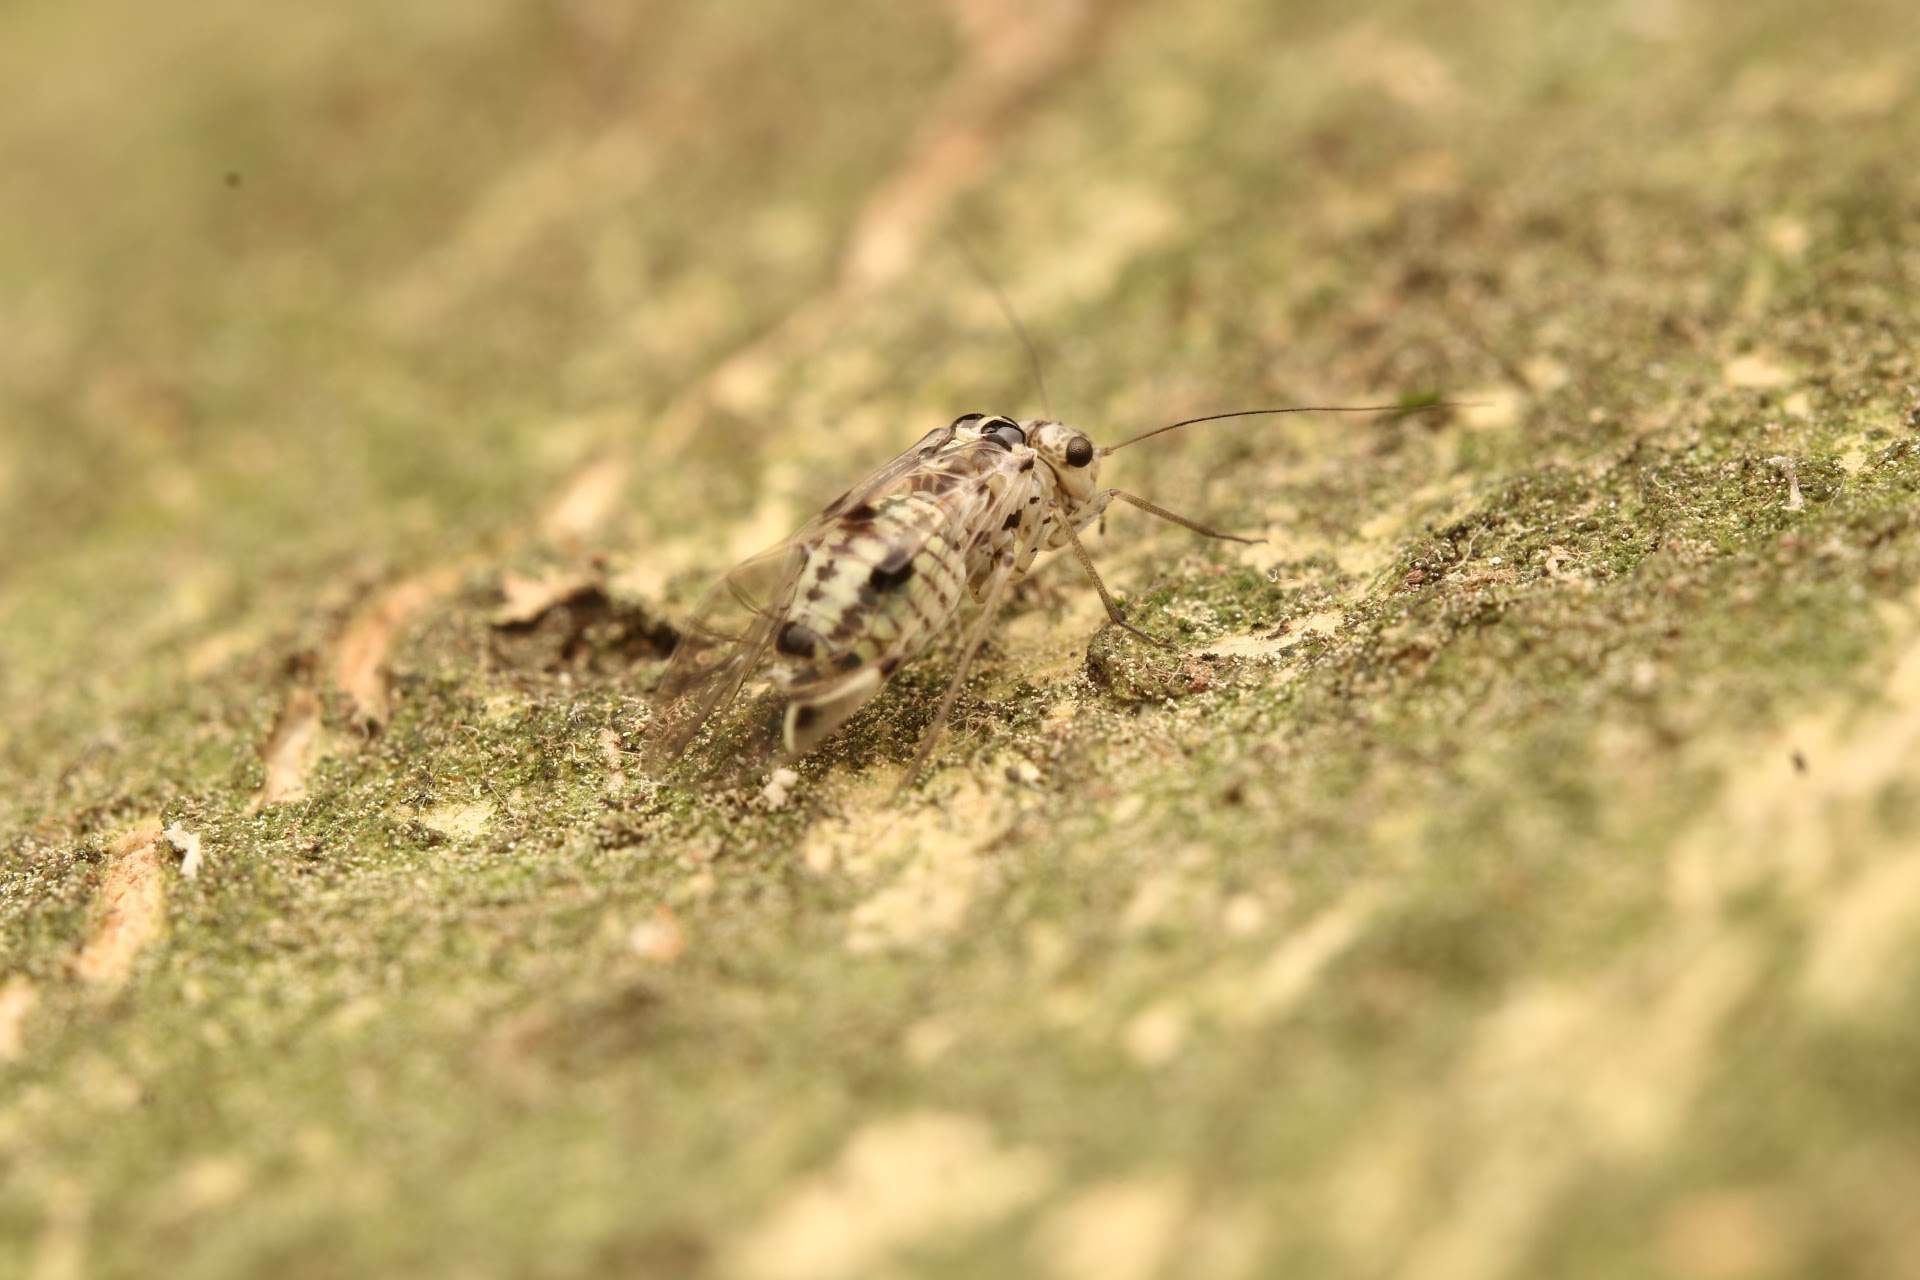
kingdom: Animalia
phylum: Arthropoda
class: Insecta
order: Psocodea
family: Psocidae
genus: Psocus
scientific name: Psocus leidyi
